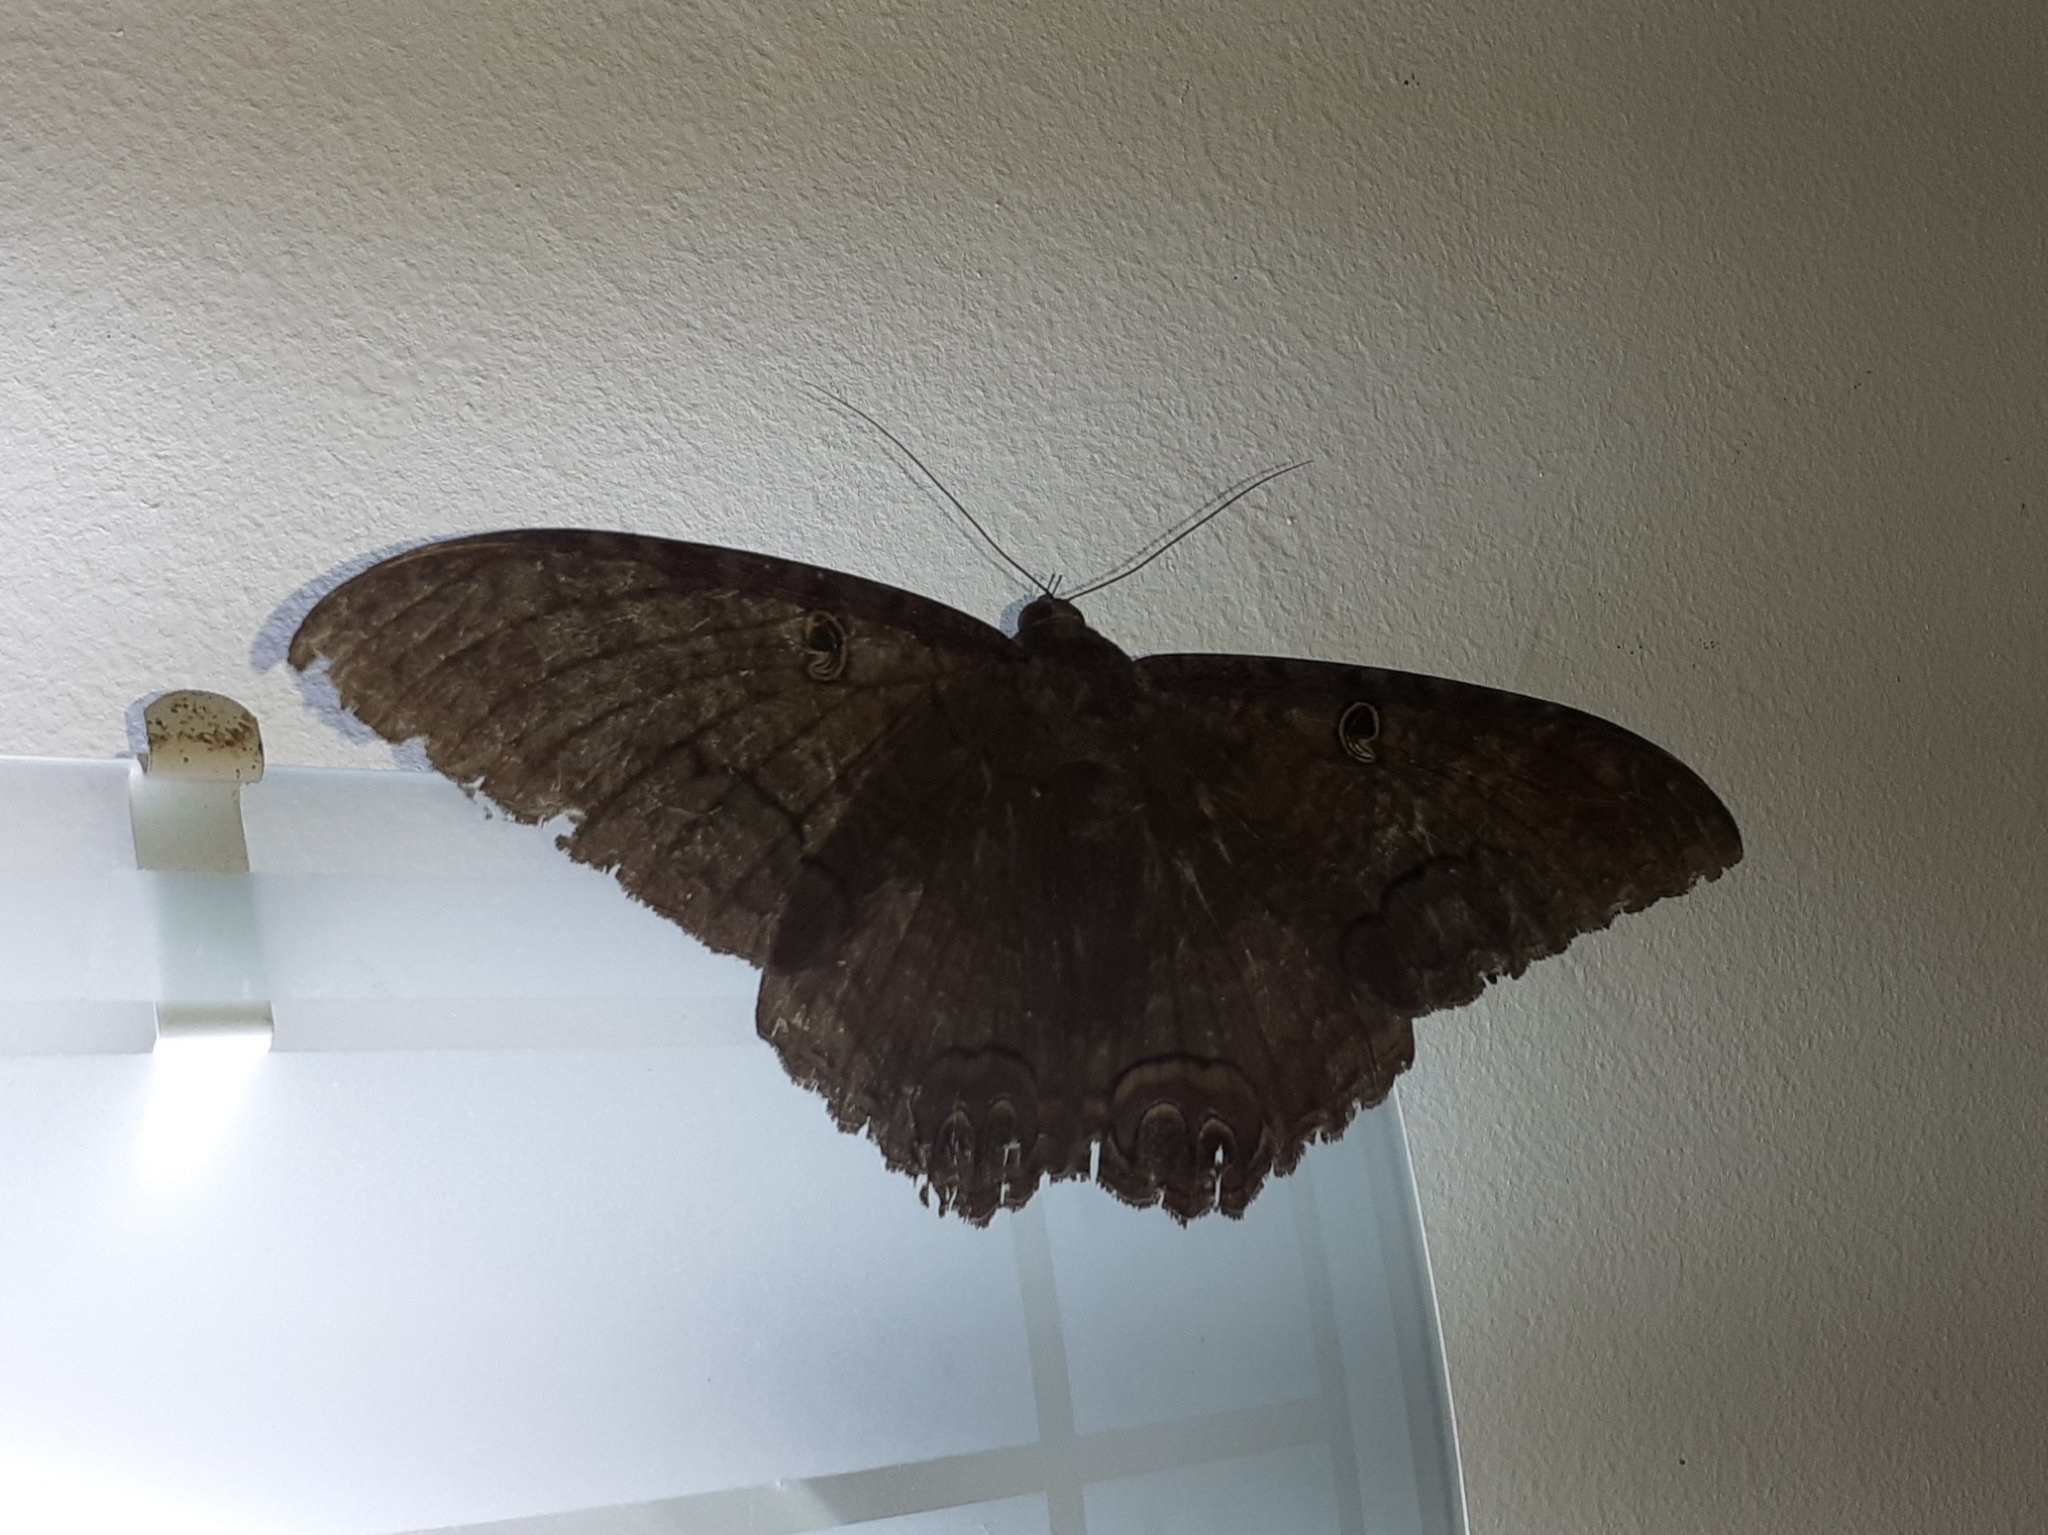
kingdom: Animalia
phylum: Arthropoda
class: Insecta
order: Lepidoptera
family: Erebidae
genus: Ascalapha
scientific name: Ascalapha odorata
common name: Black witch
